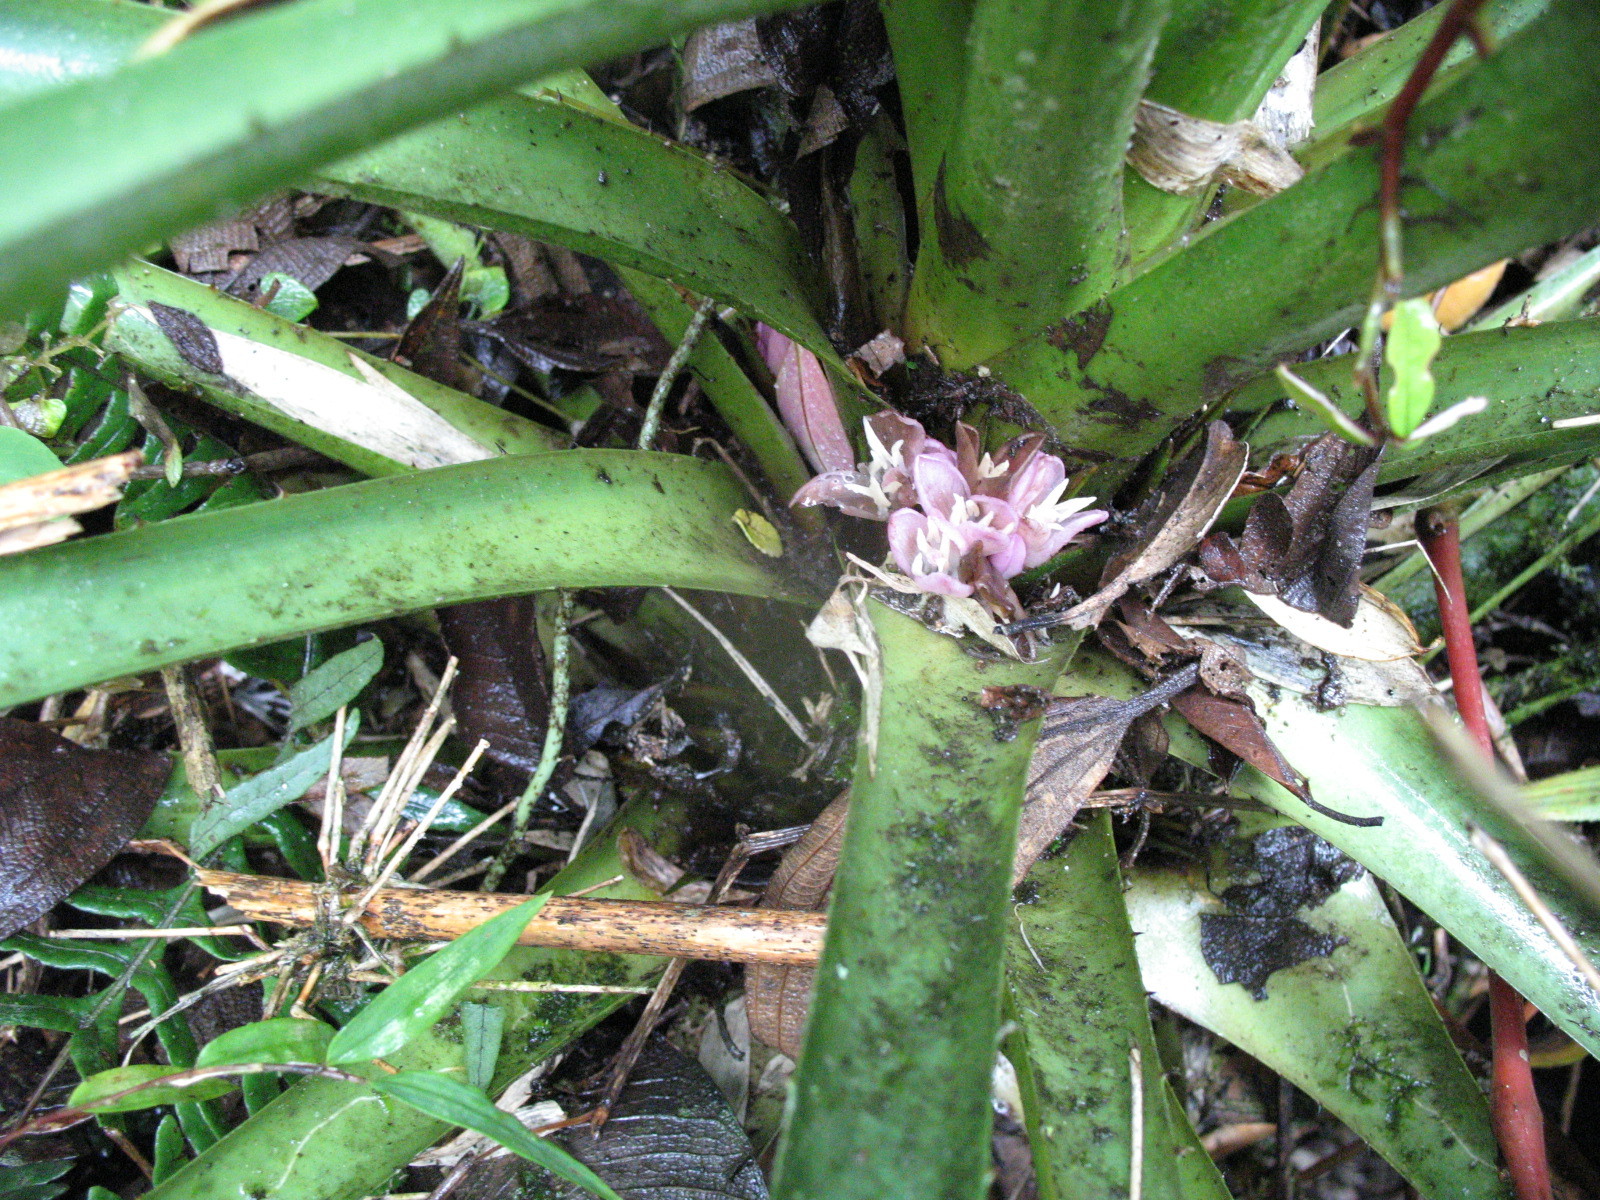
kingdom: Plantae
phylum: Tracheophyta
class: Liliopsida
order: Poales
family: Bromeliaceae
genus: Greigia
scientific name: Greigia mulfordii
